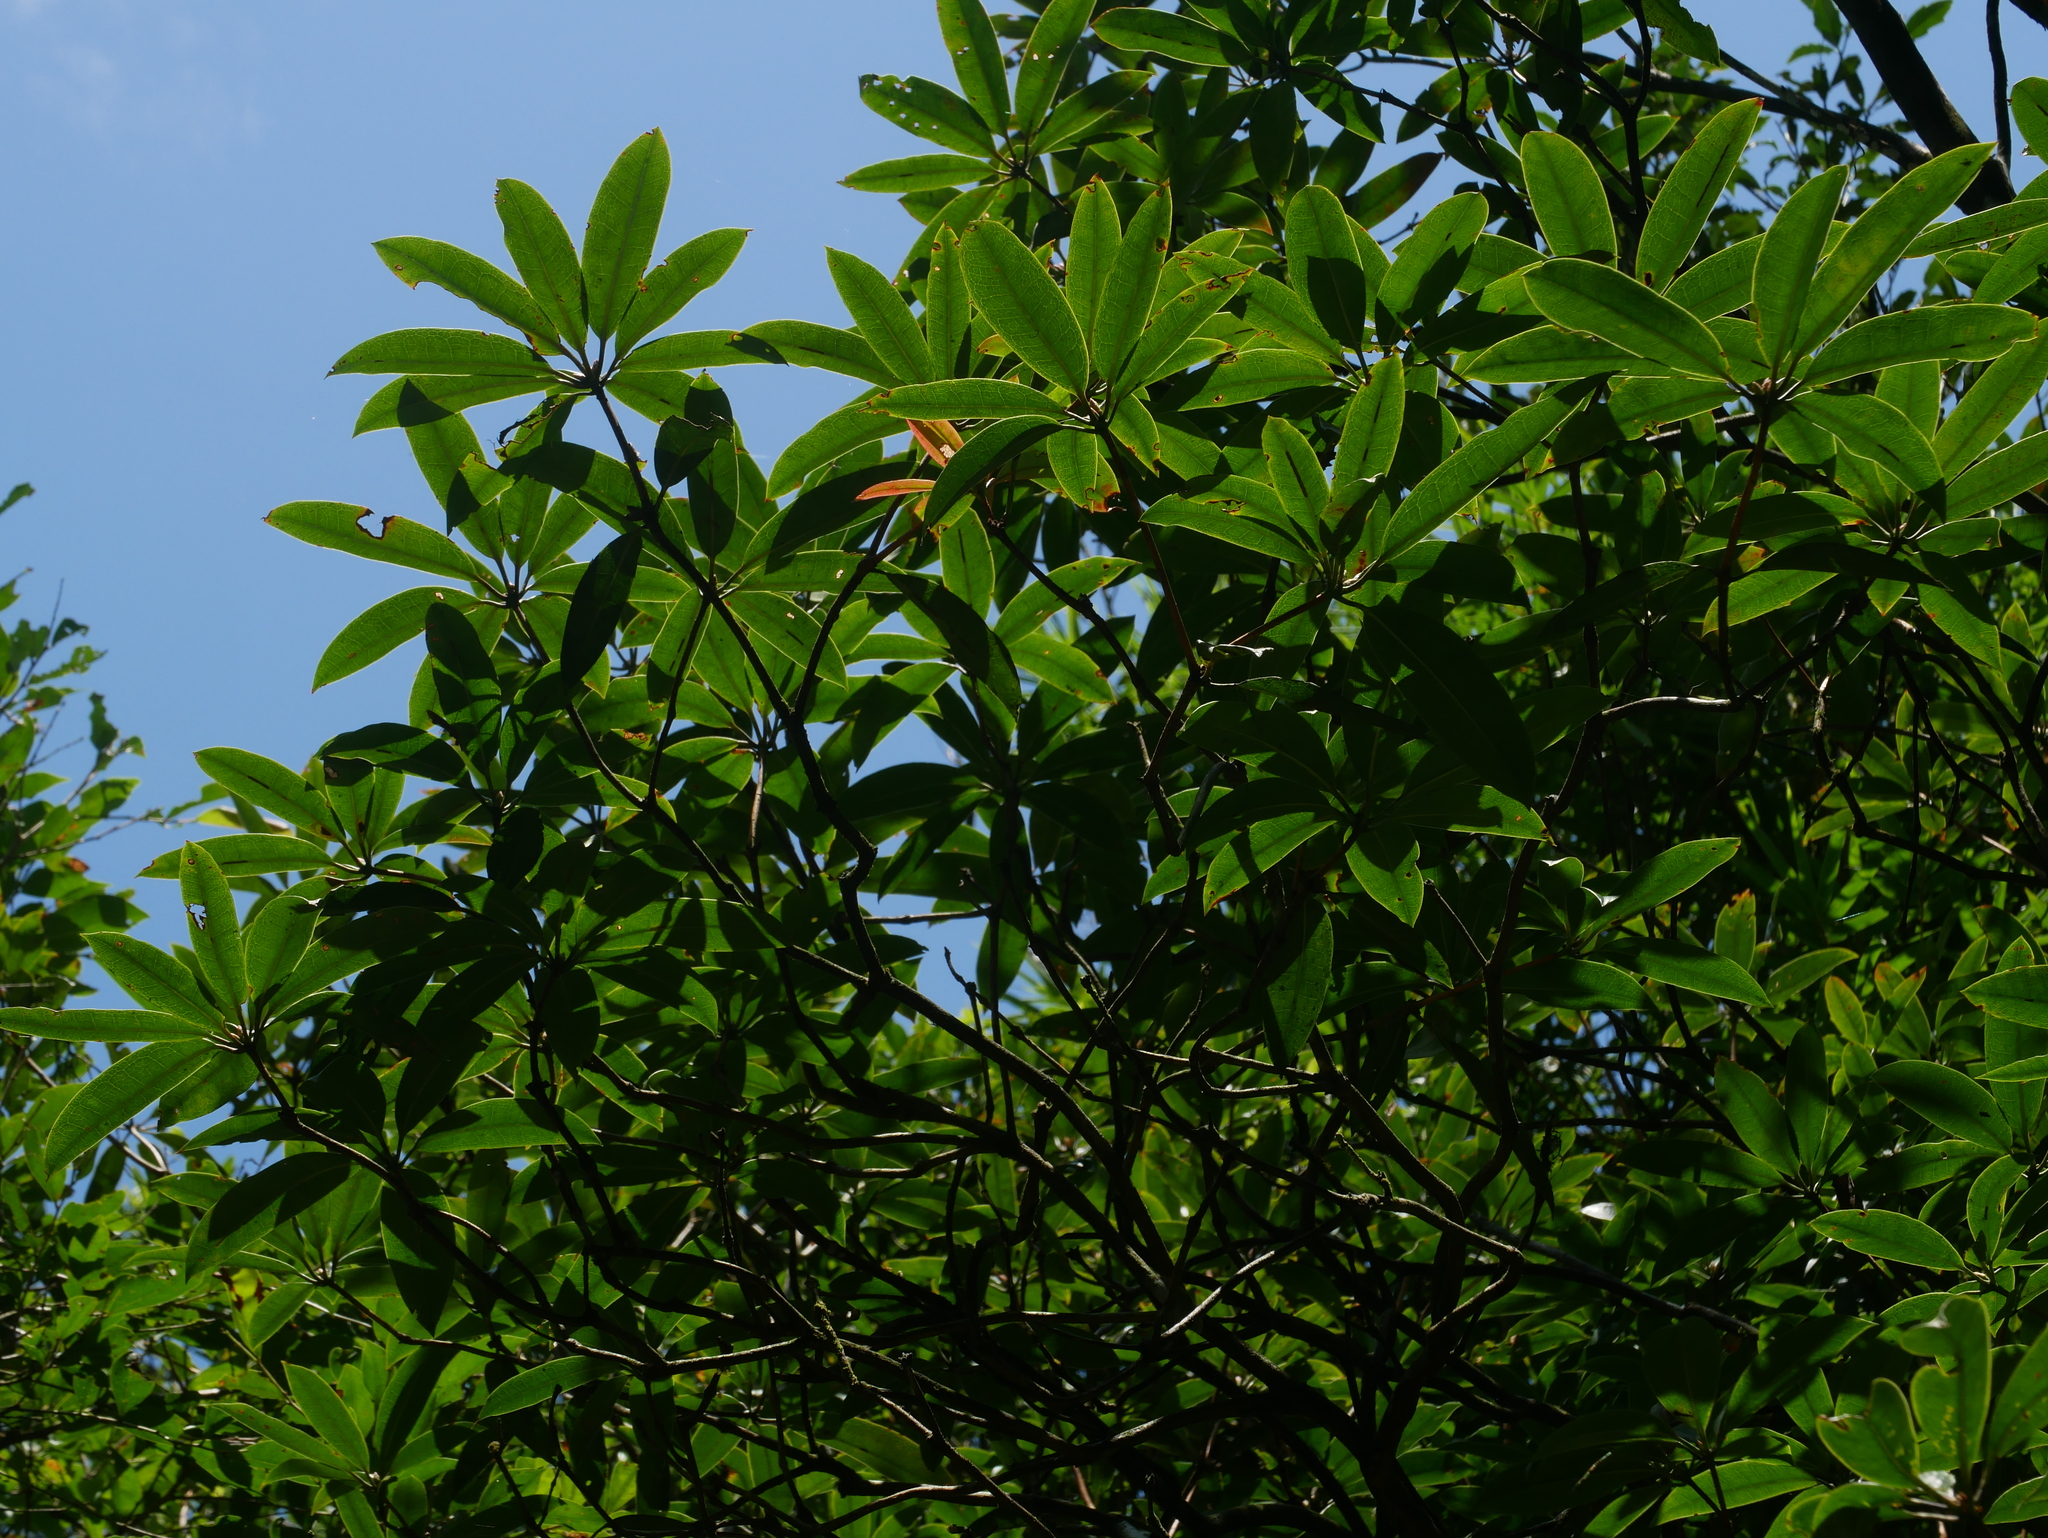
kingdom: Plantae
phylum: Tracheophyta
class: Magnoliopsida
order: Ericales
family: Ericaceae
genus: Rhododendron
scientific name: Rhododendron latoucheae
